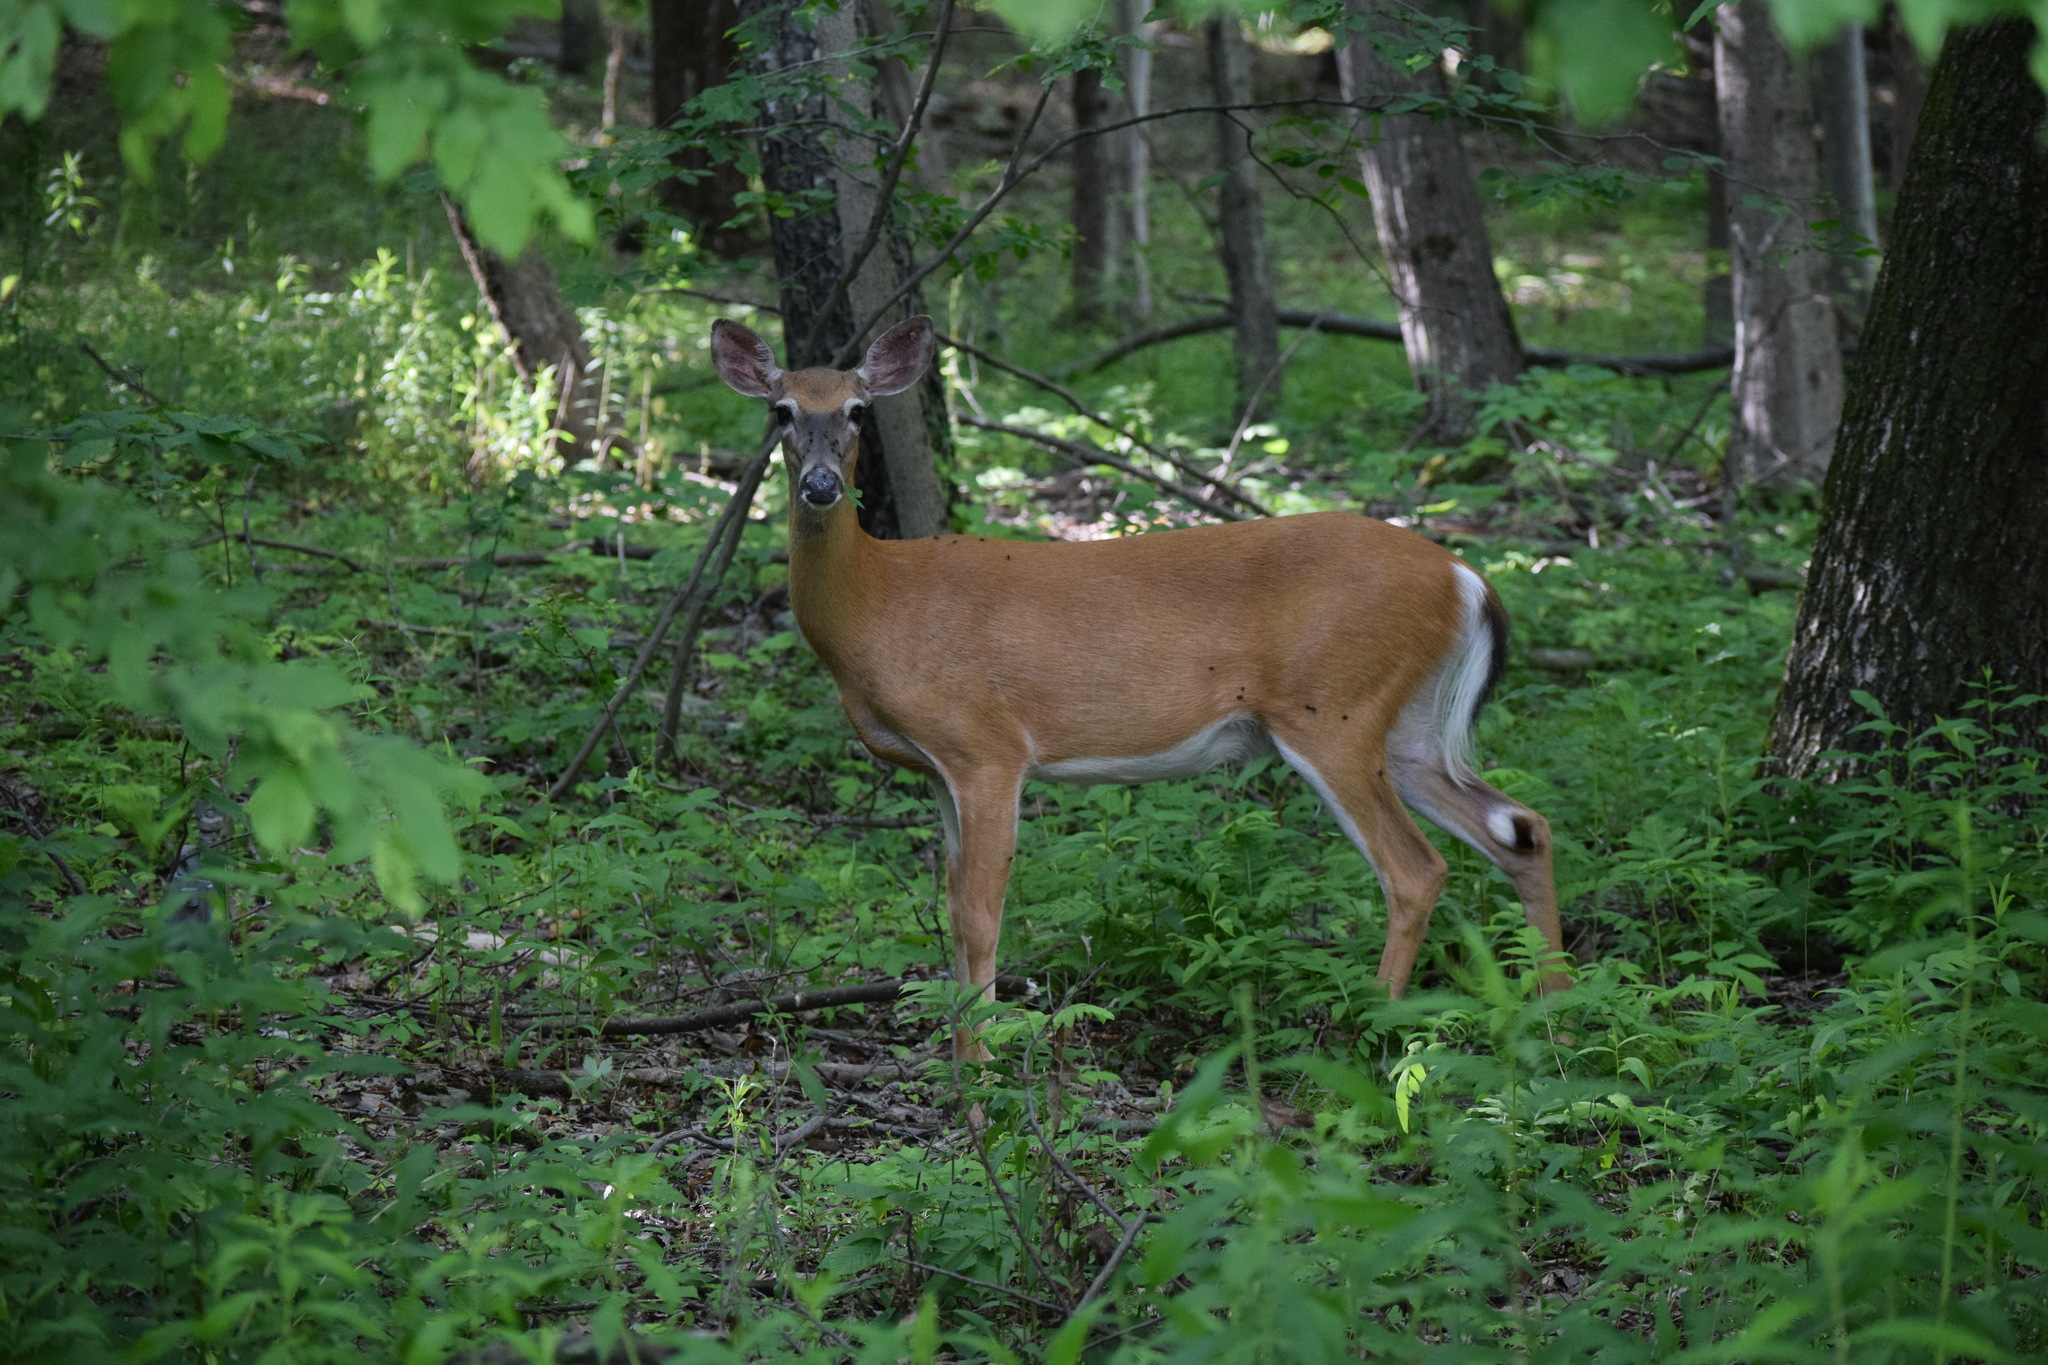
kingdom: Animalia
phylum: Chordata
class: Mammalia
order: Artiodactyla
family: Cervidae
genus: Odocoileus
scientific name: Odocoileus virginianus
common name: White-tailed deer
